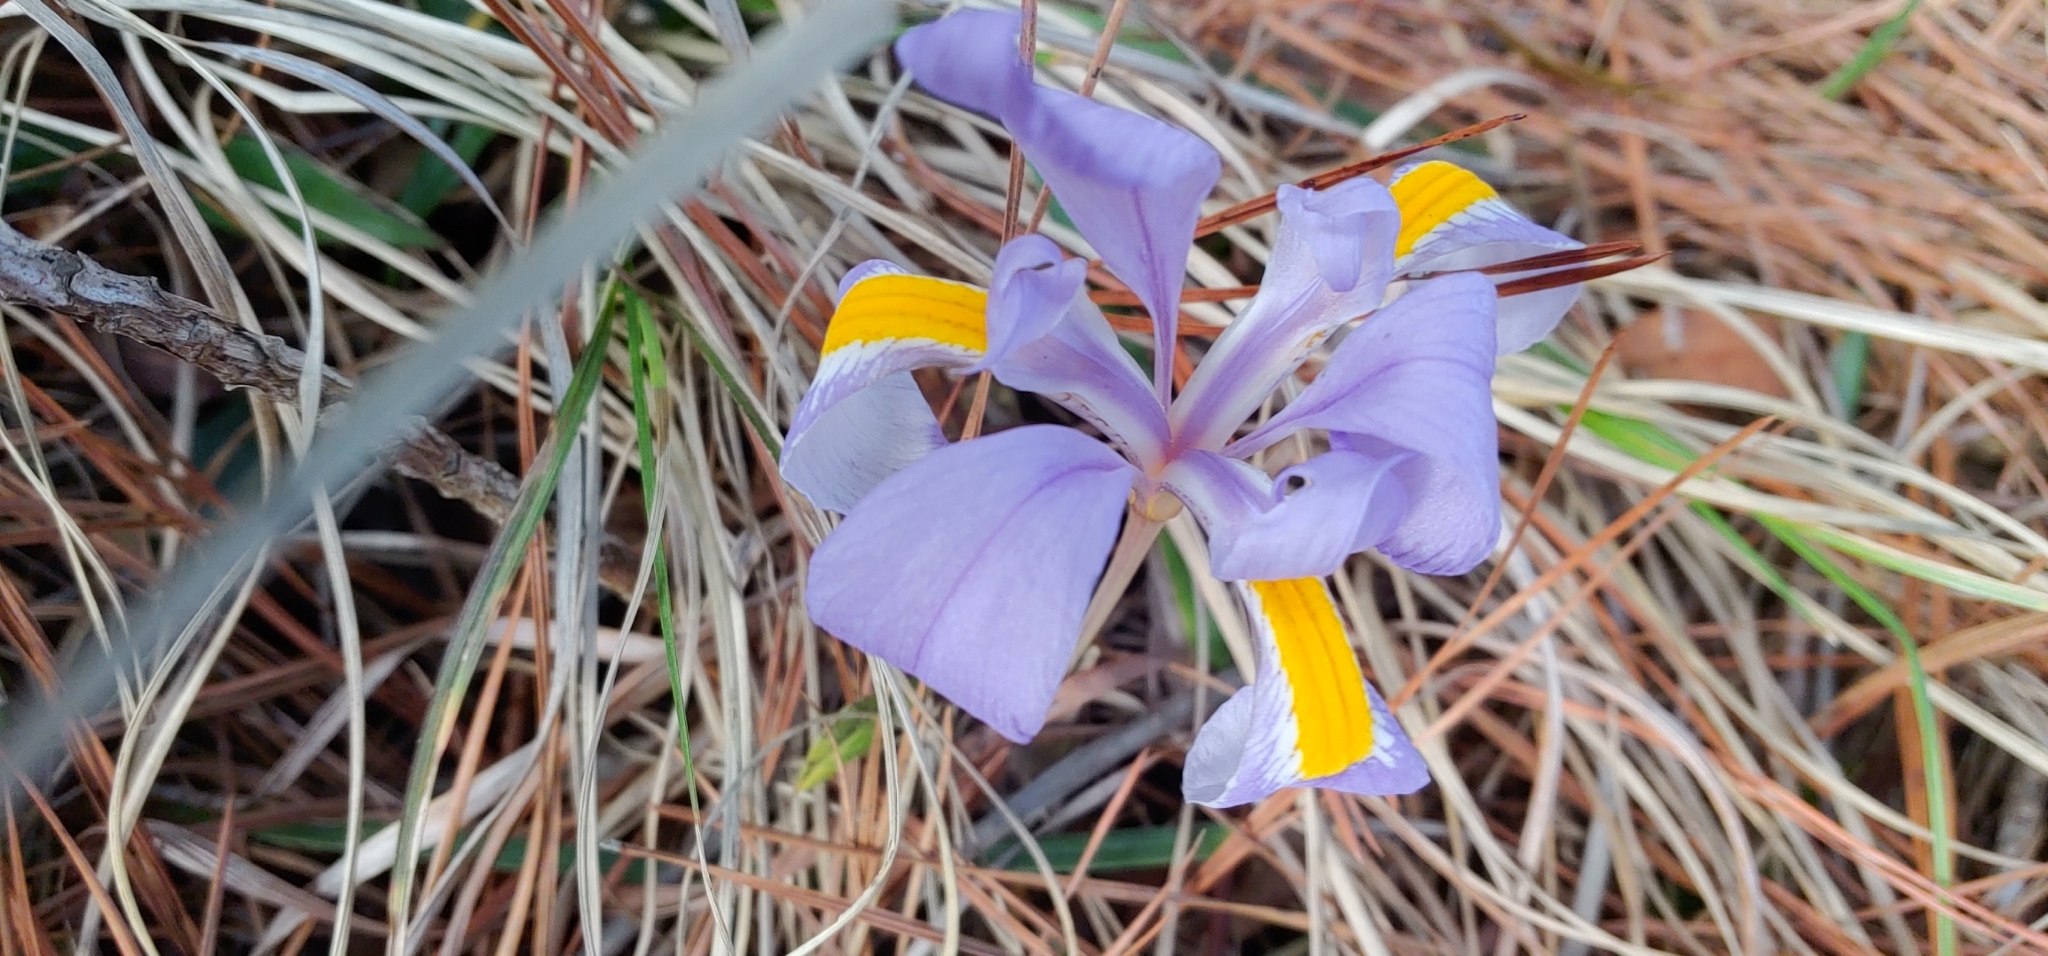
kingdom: Plantae
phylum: Tracheophyta
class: Liliopsida
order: Asparagales
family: Iridaceae
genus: Iris
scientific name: Iris verna
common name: Dwarf iris
